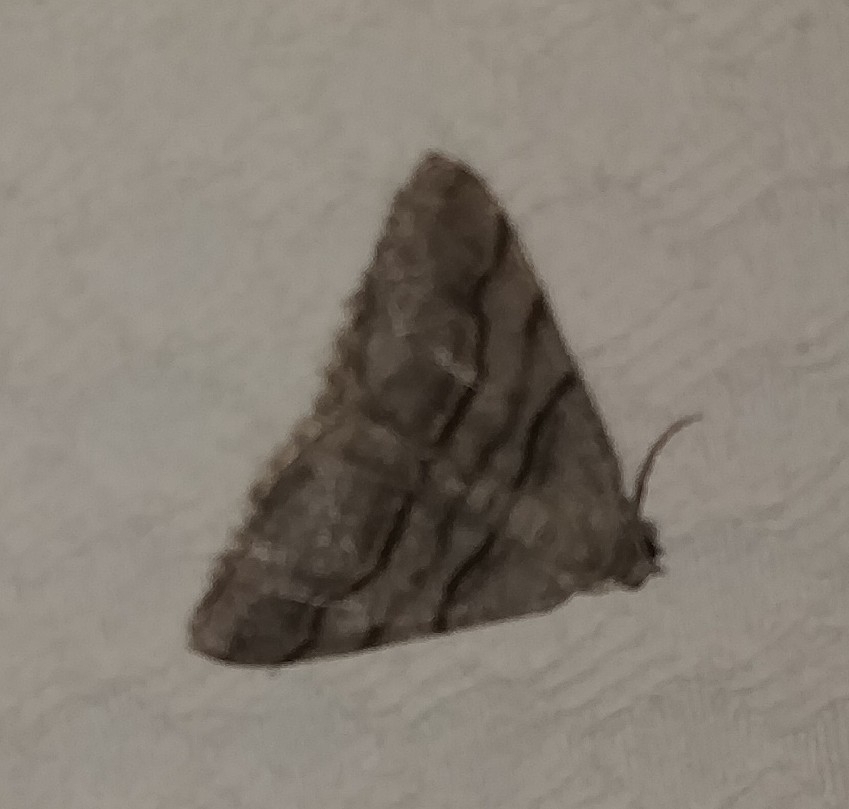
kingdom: Animalia
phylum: Arthropoda
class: Insecta
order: Lepidoptera
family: Geometridae
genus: Digrammia
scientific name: Digrammia continuata
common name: Curve-lined angle
